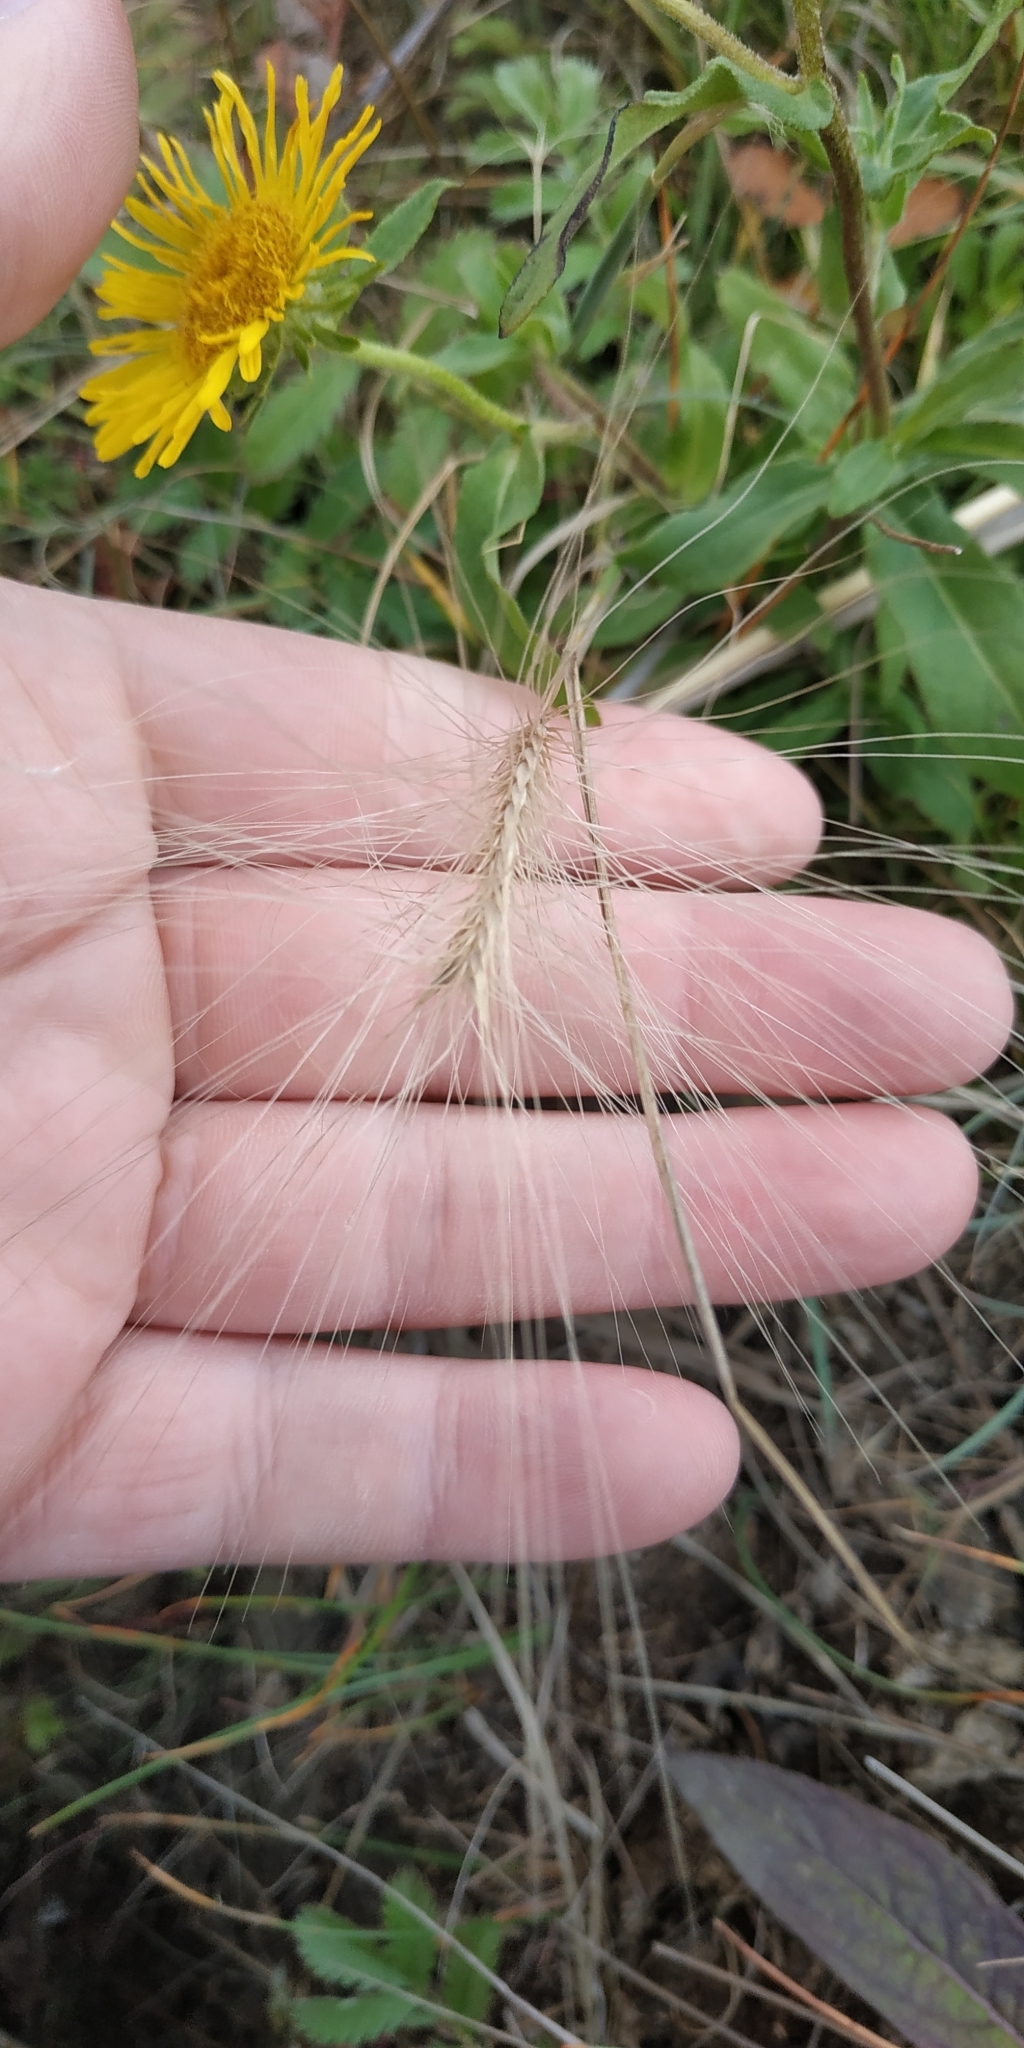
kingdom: Plantae
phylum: Tracheophyta
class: Liliopsida
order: Poales
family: Poaceae
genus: Hordeum
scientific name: Hordeum jubatum
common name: Foxtail barley
